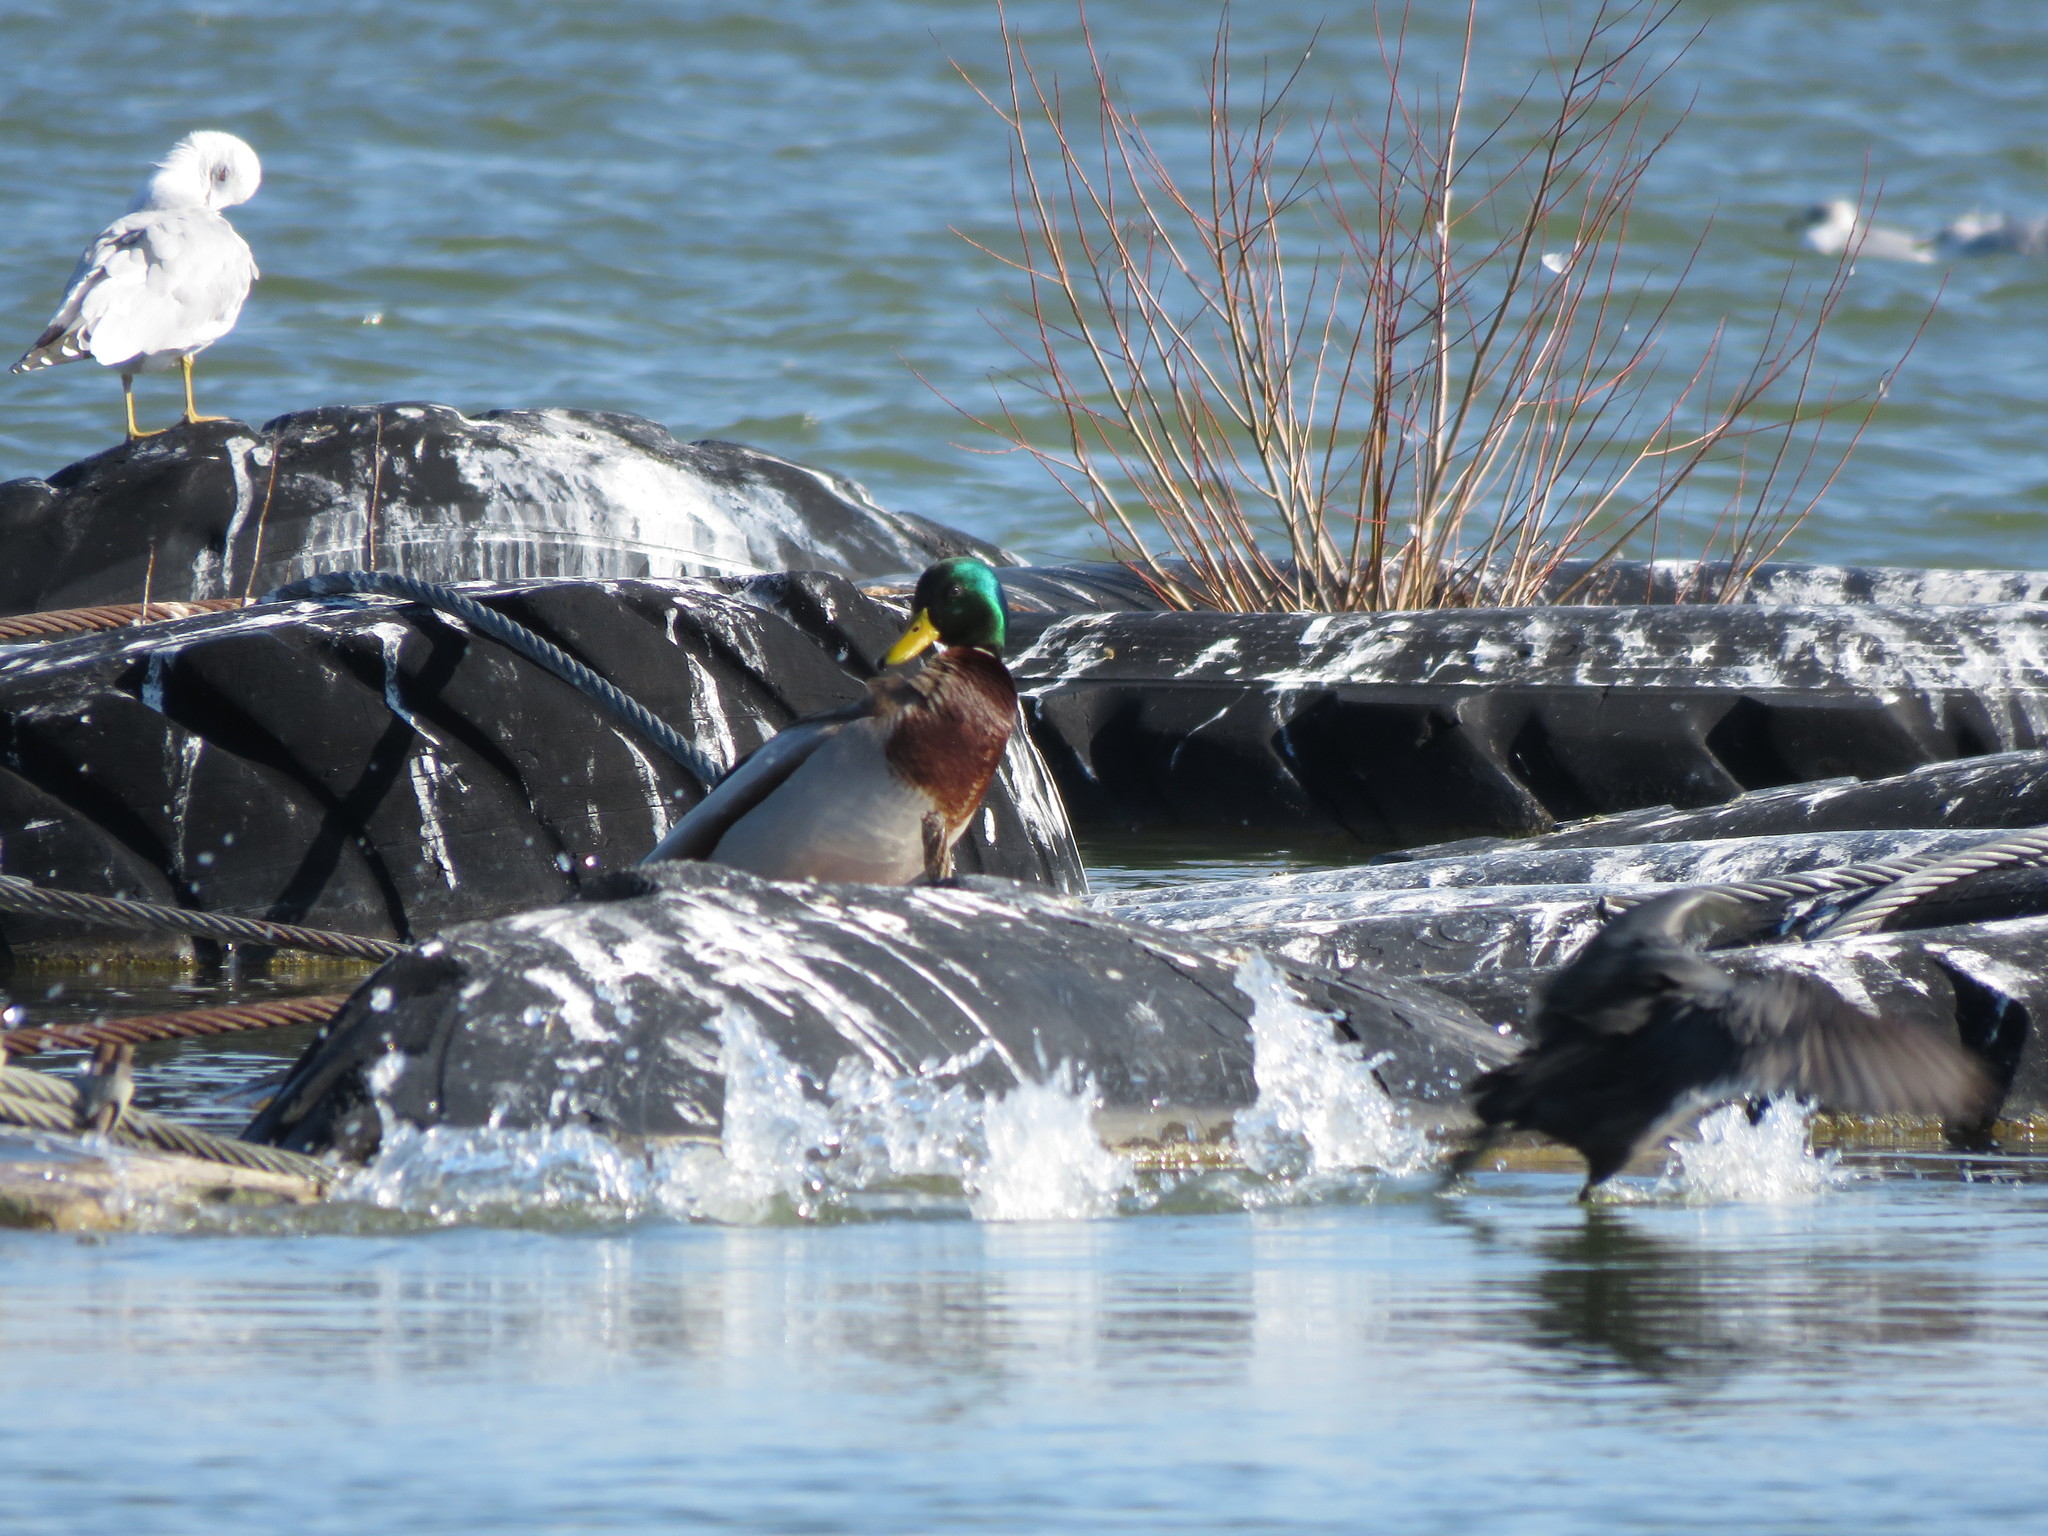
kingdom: Animalia
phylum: Chordata
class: Aves
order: Anseriformes
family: Anatidae
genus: Anas
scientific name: Anas platyrhynchos
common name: Mallard
